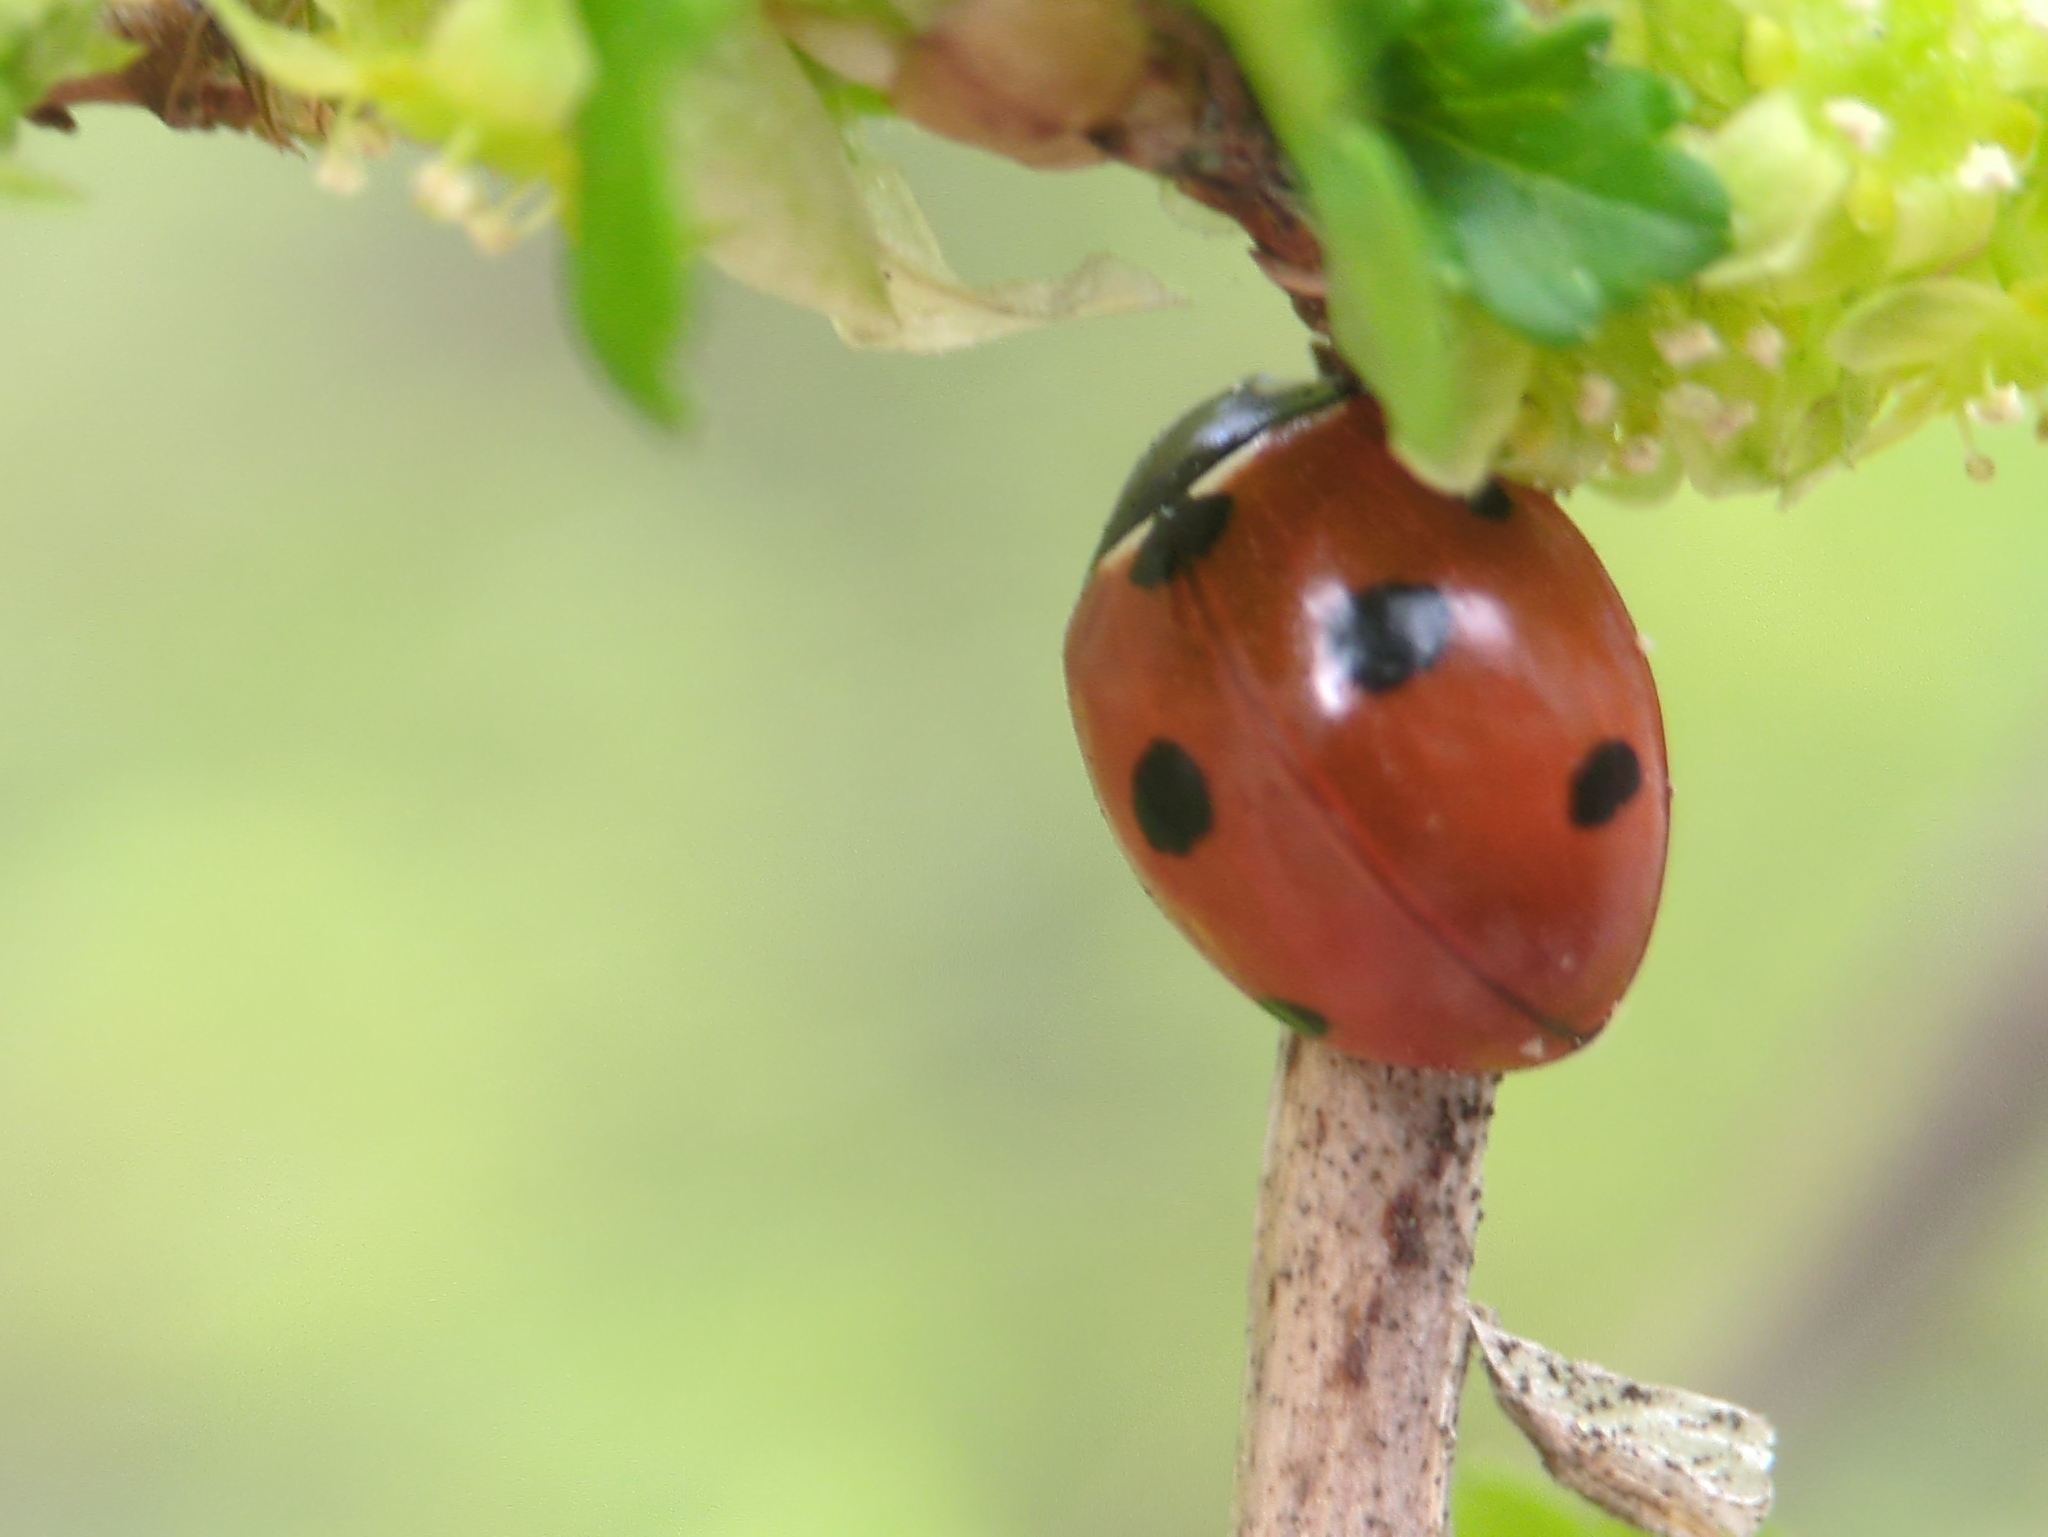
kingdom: Animalia
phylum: Arthropoda
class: Insecta
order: Coleoptera
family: Coccinellidae
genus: Coccinella
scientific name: Coccinella septempunctata
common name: Sevenspotted lady beetle
